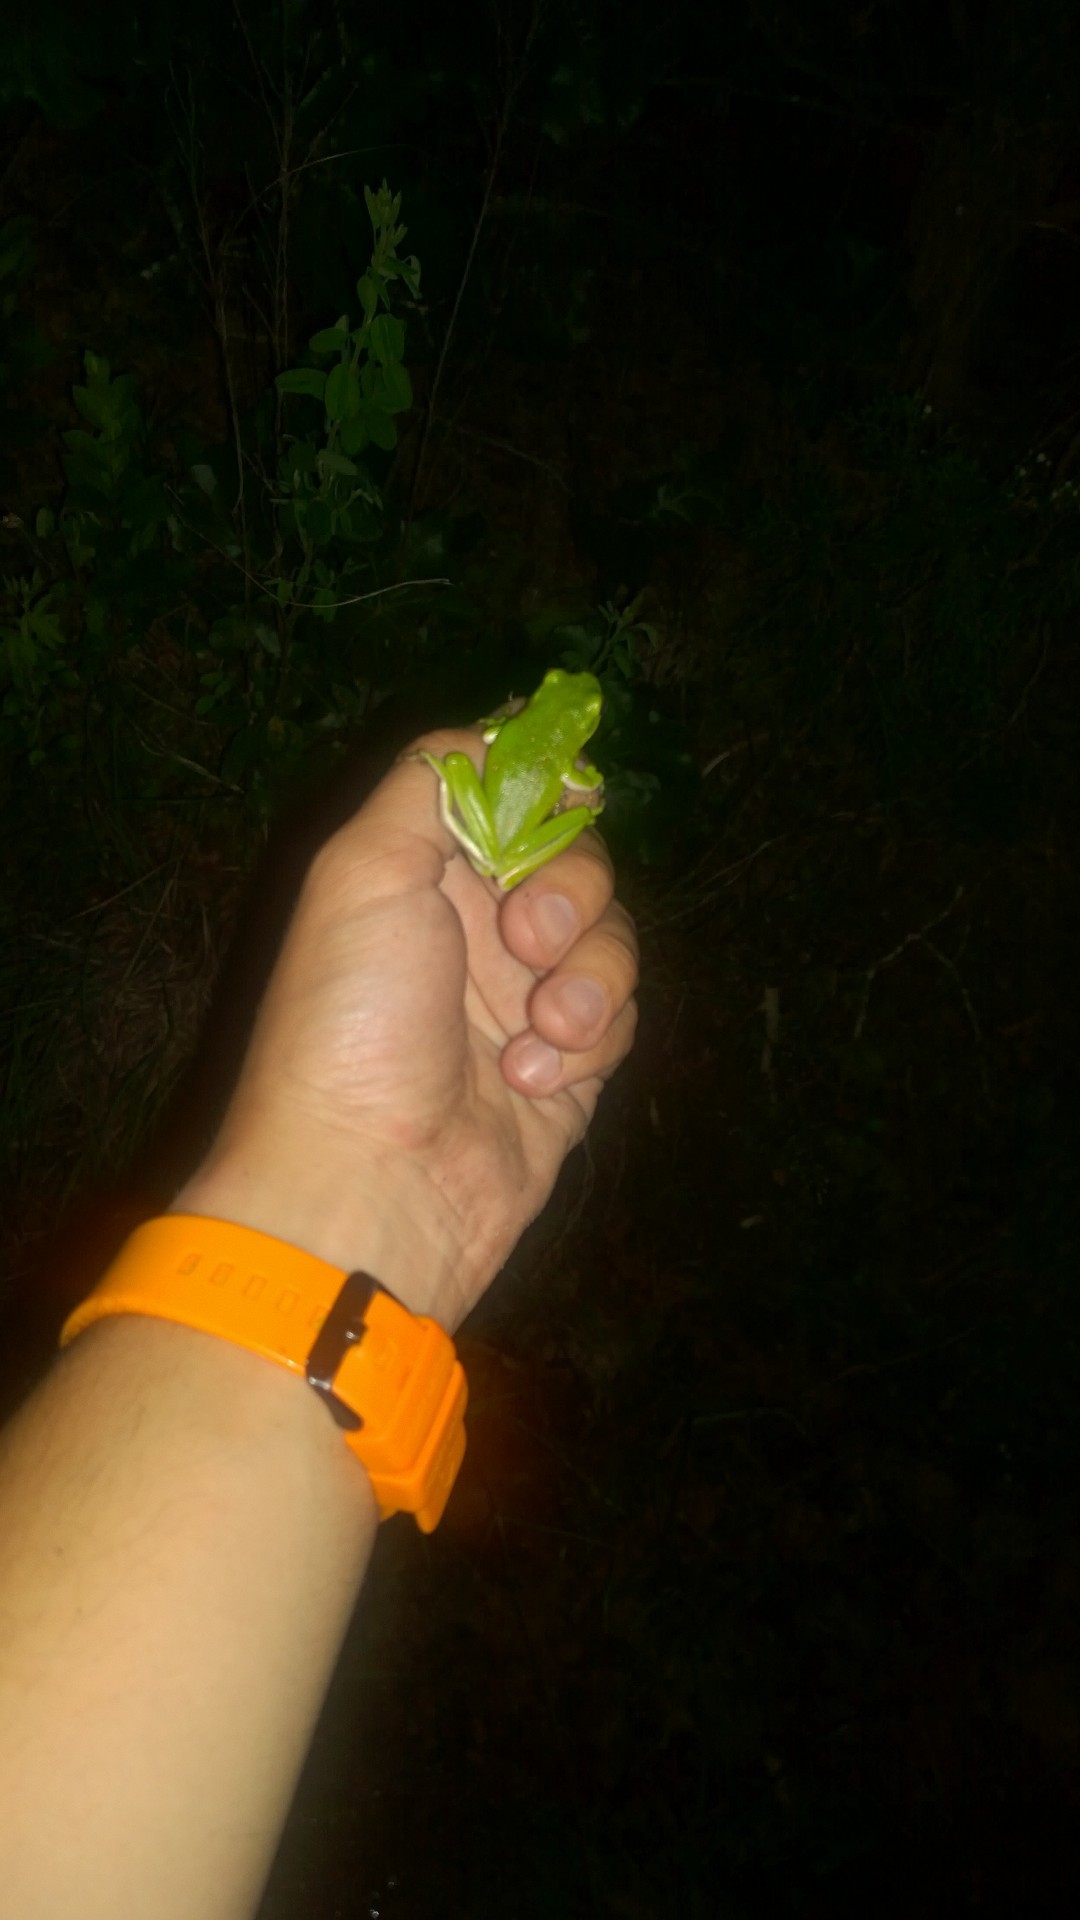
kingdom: Animalia
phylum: Chordata
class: Amphibia
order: Anura
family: Hylidae
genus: Dryophytes
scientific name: Dryophytes cinereus
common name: Green treefrog
